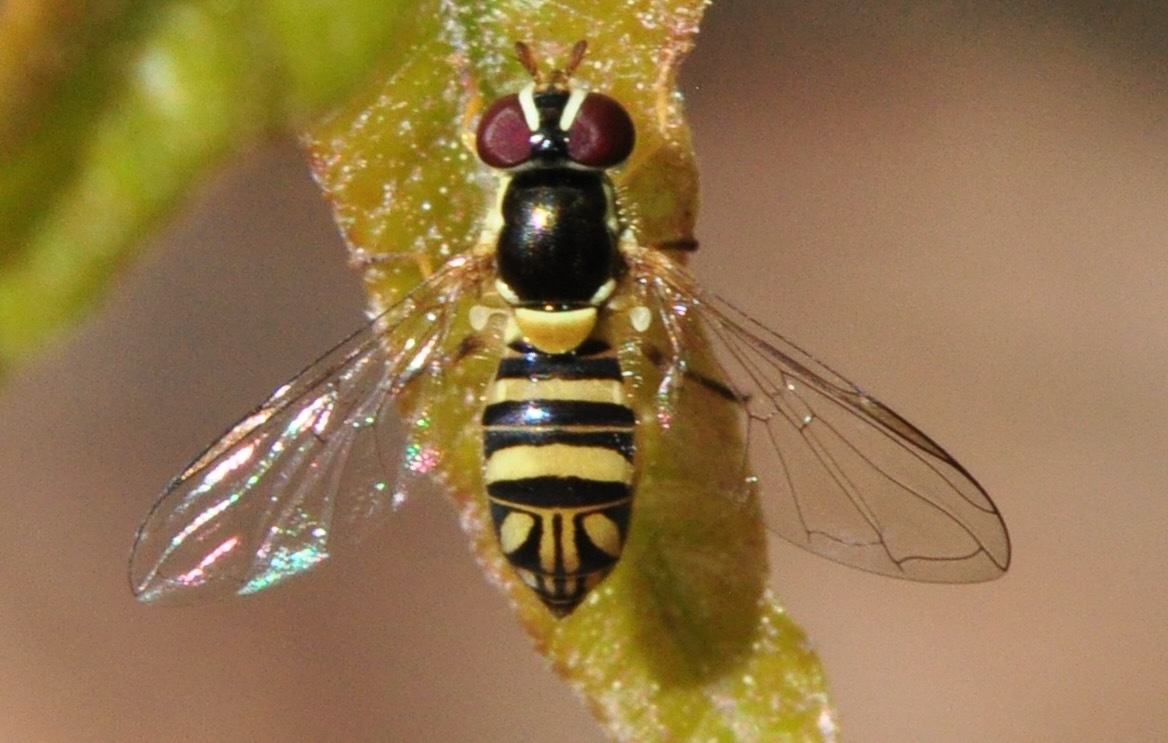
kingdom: Animalia
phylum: Arthropoda
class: Insecta
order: Diptera
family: Syrphidae
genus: Allograpta
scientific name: Allograpta obliqua
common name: Common oblique syrphid
